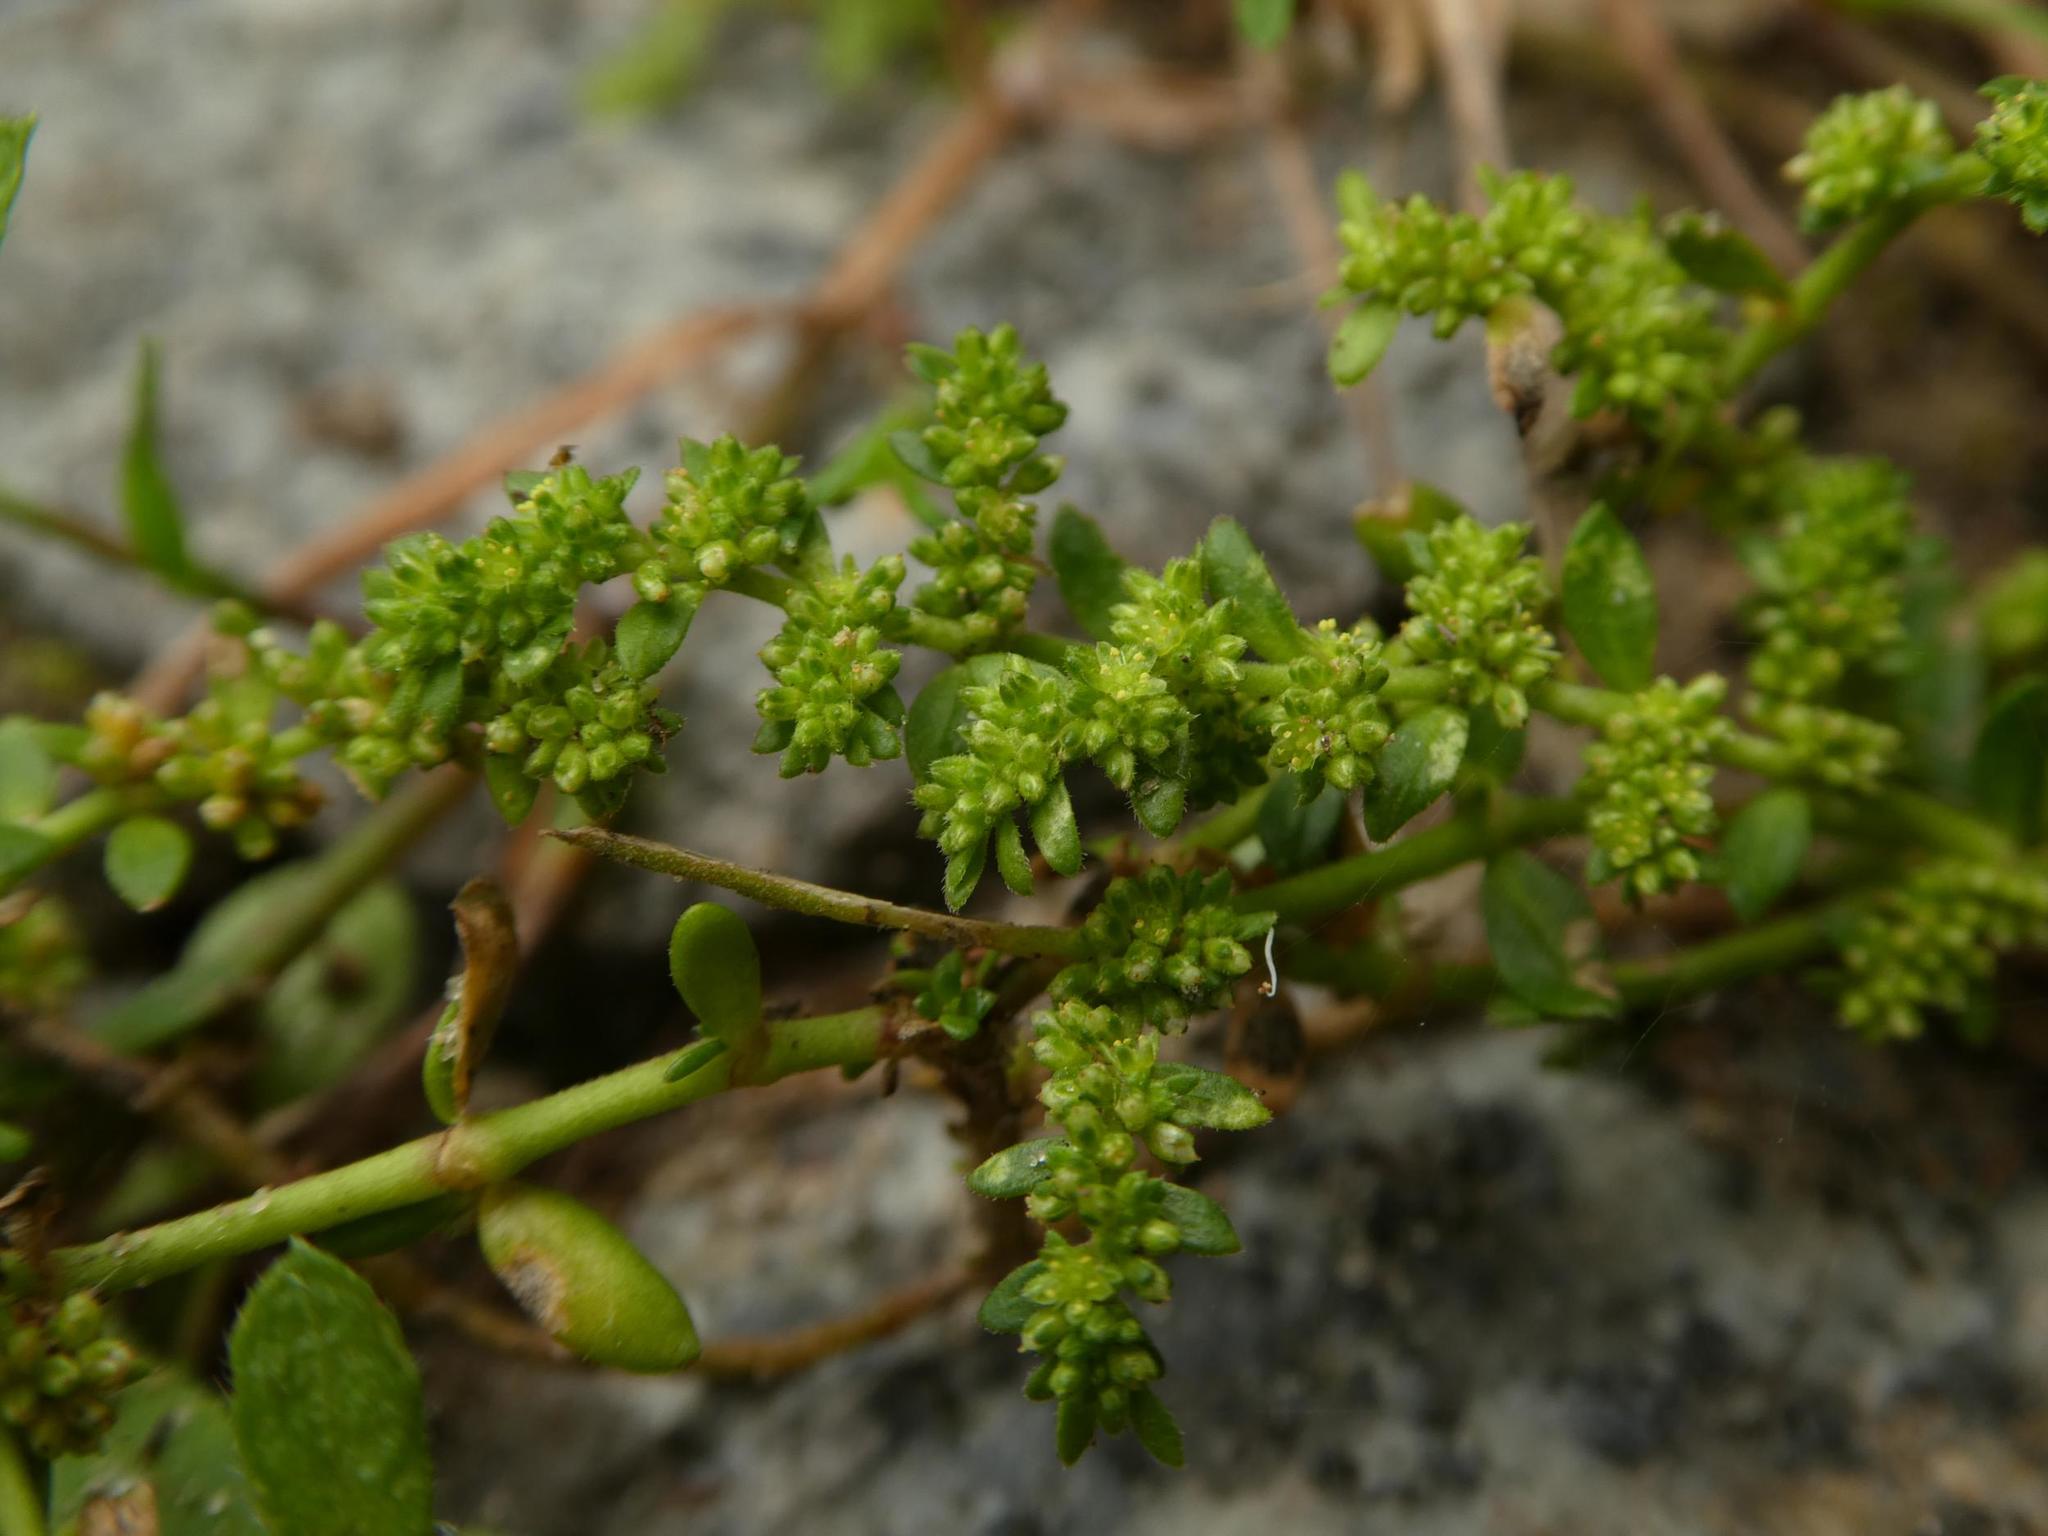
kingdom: Plantae
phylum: Tracheophyta
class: Magnoliopsida
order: Caryophyllales
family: Caryophyllaceae
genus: Herniaria
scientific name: Herniaria glabra
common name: Smooth rupturewort
